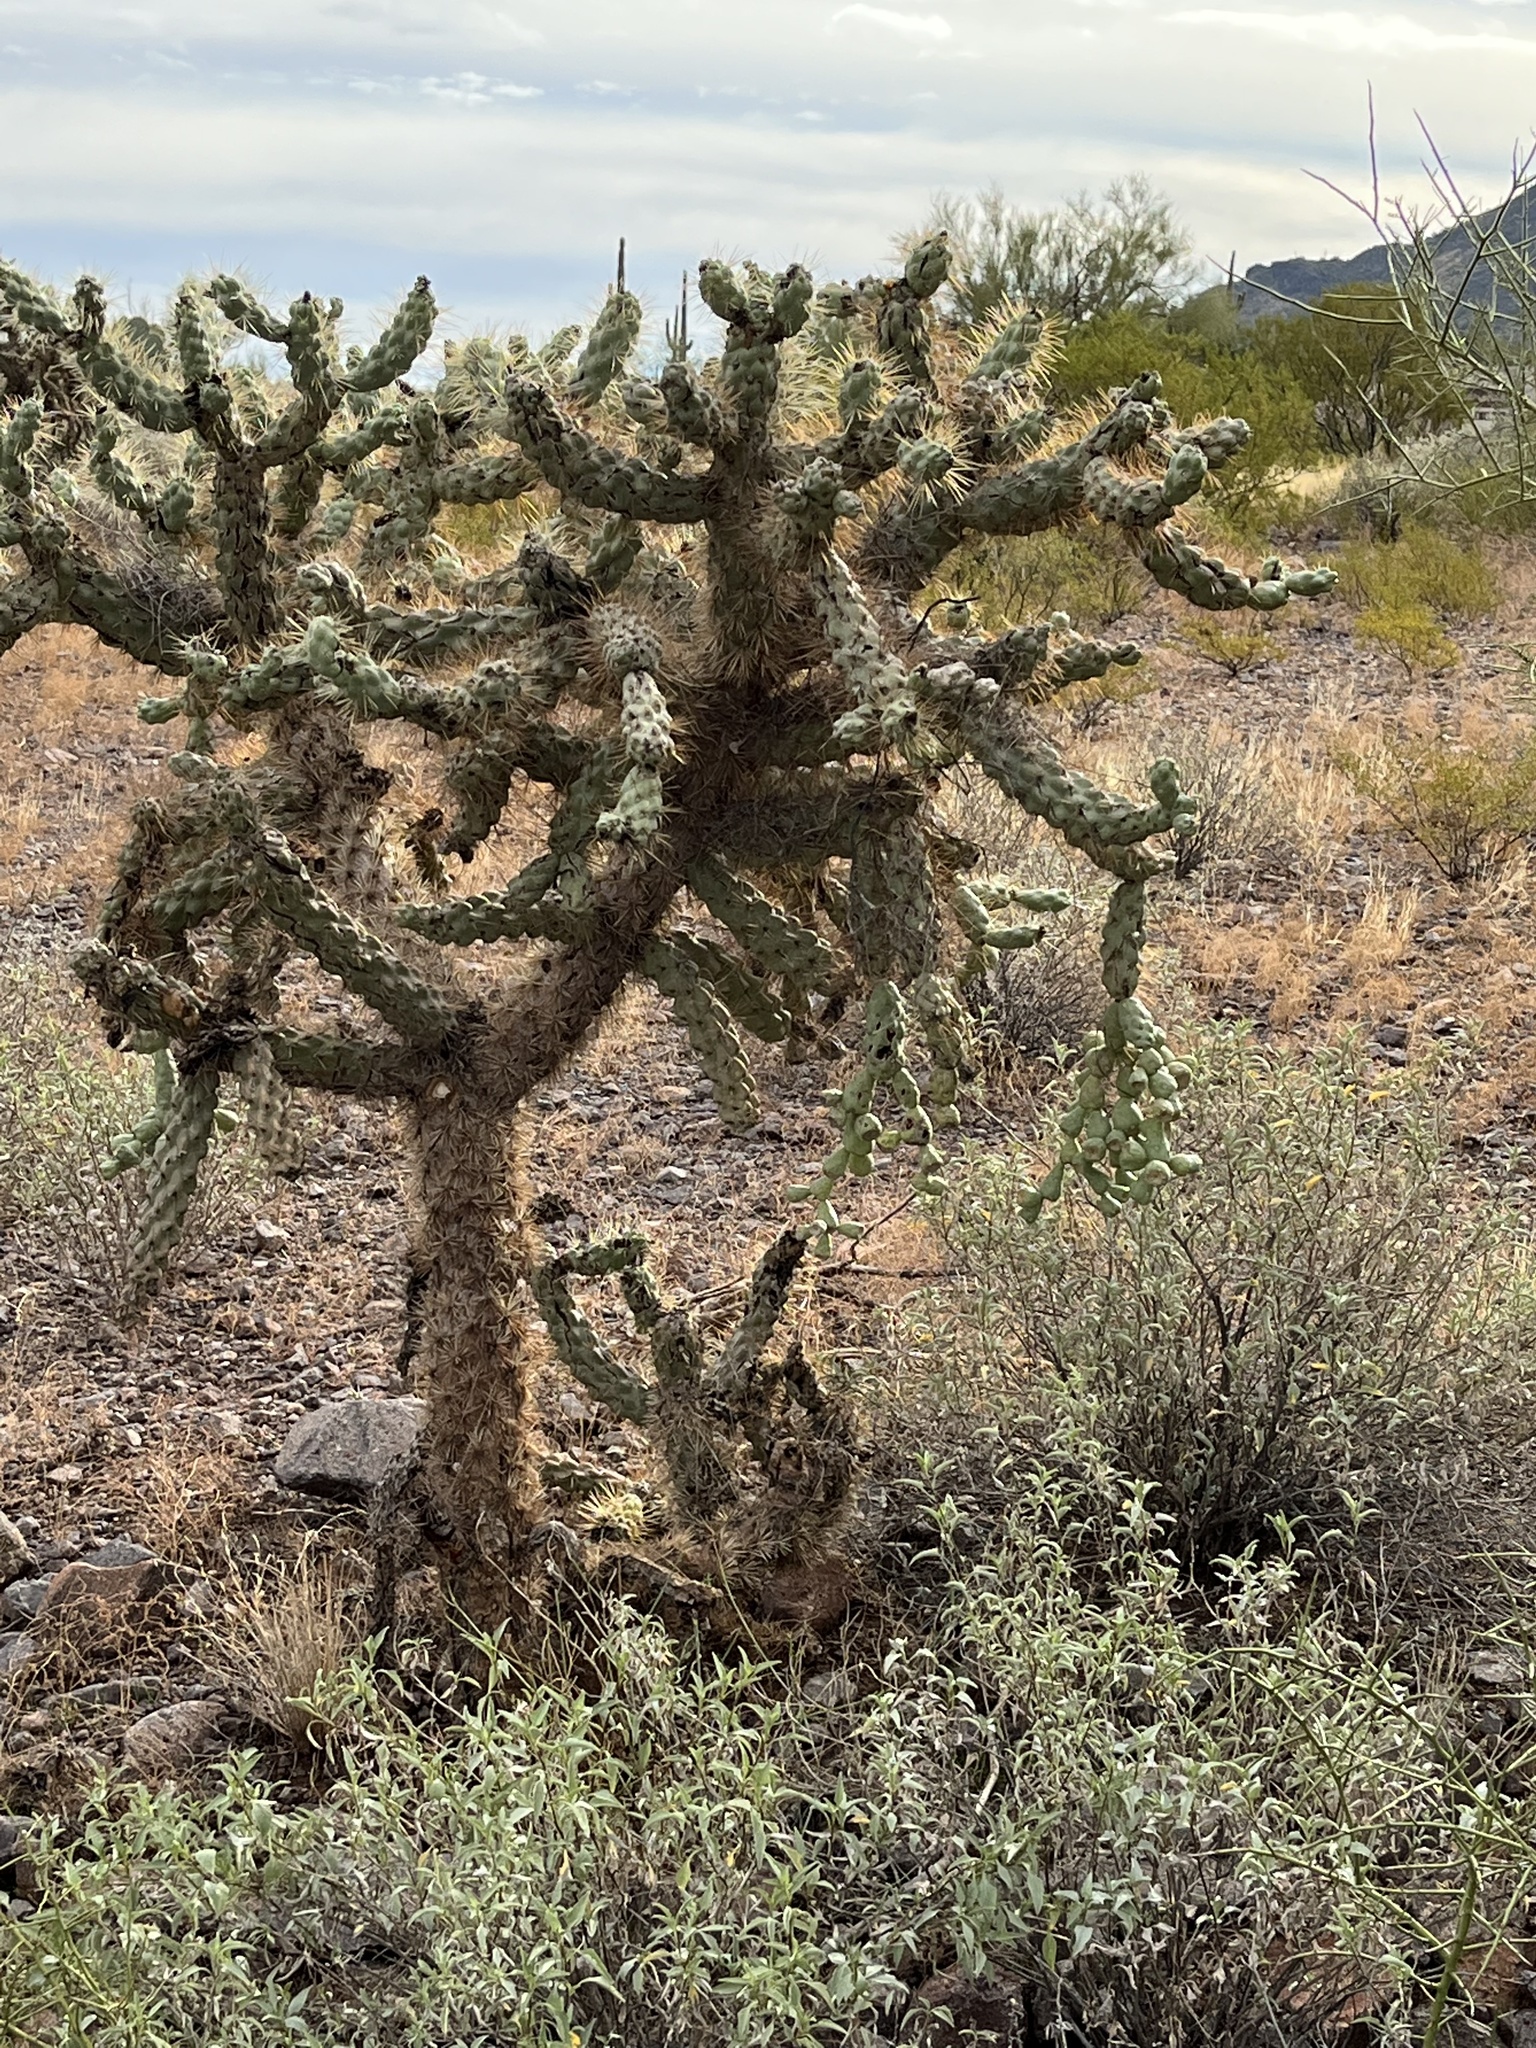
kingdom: Plantae
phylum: Tracheophyta
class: Magnoliopsida
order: Caryophyllales
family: Cactaceae
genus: Cylindropuntia
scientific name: Cylindropuntia fulgida
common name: Jumping cholla
